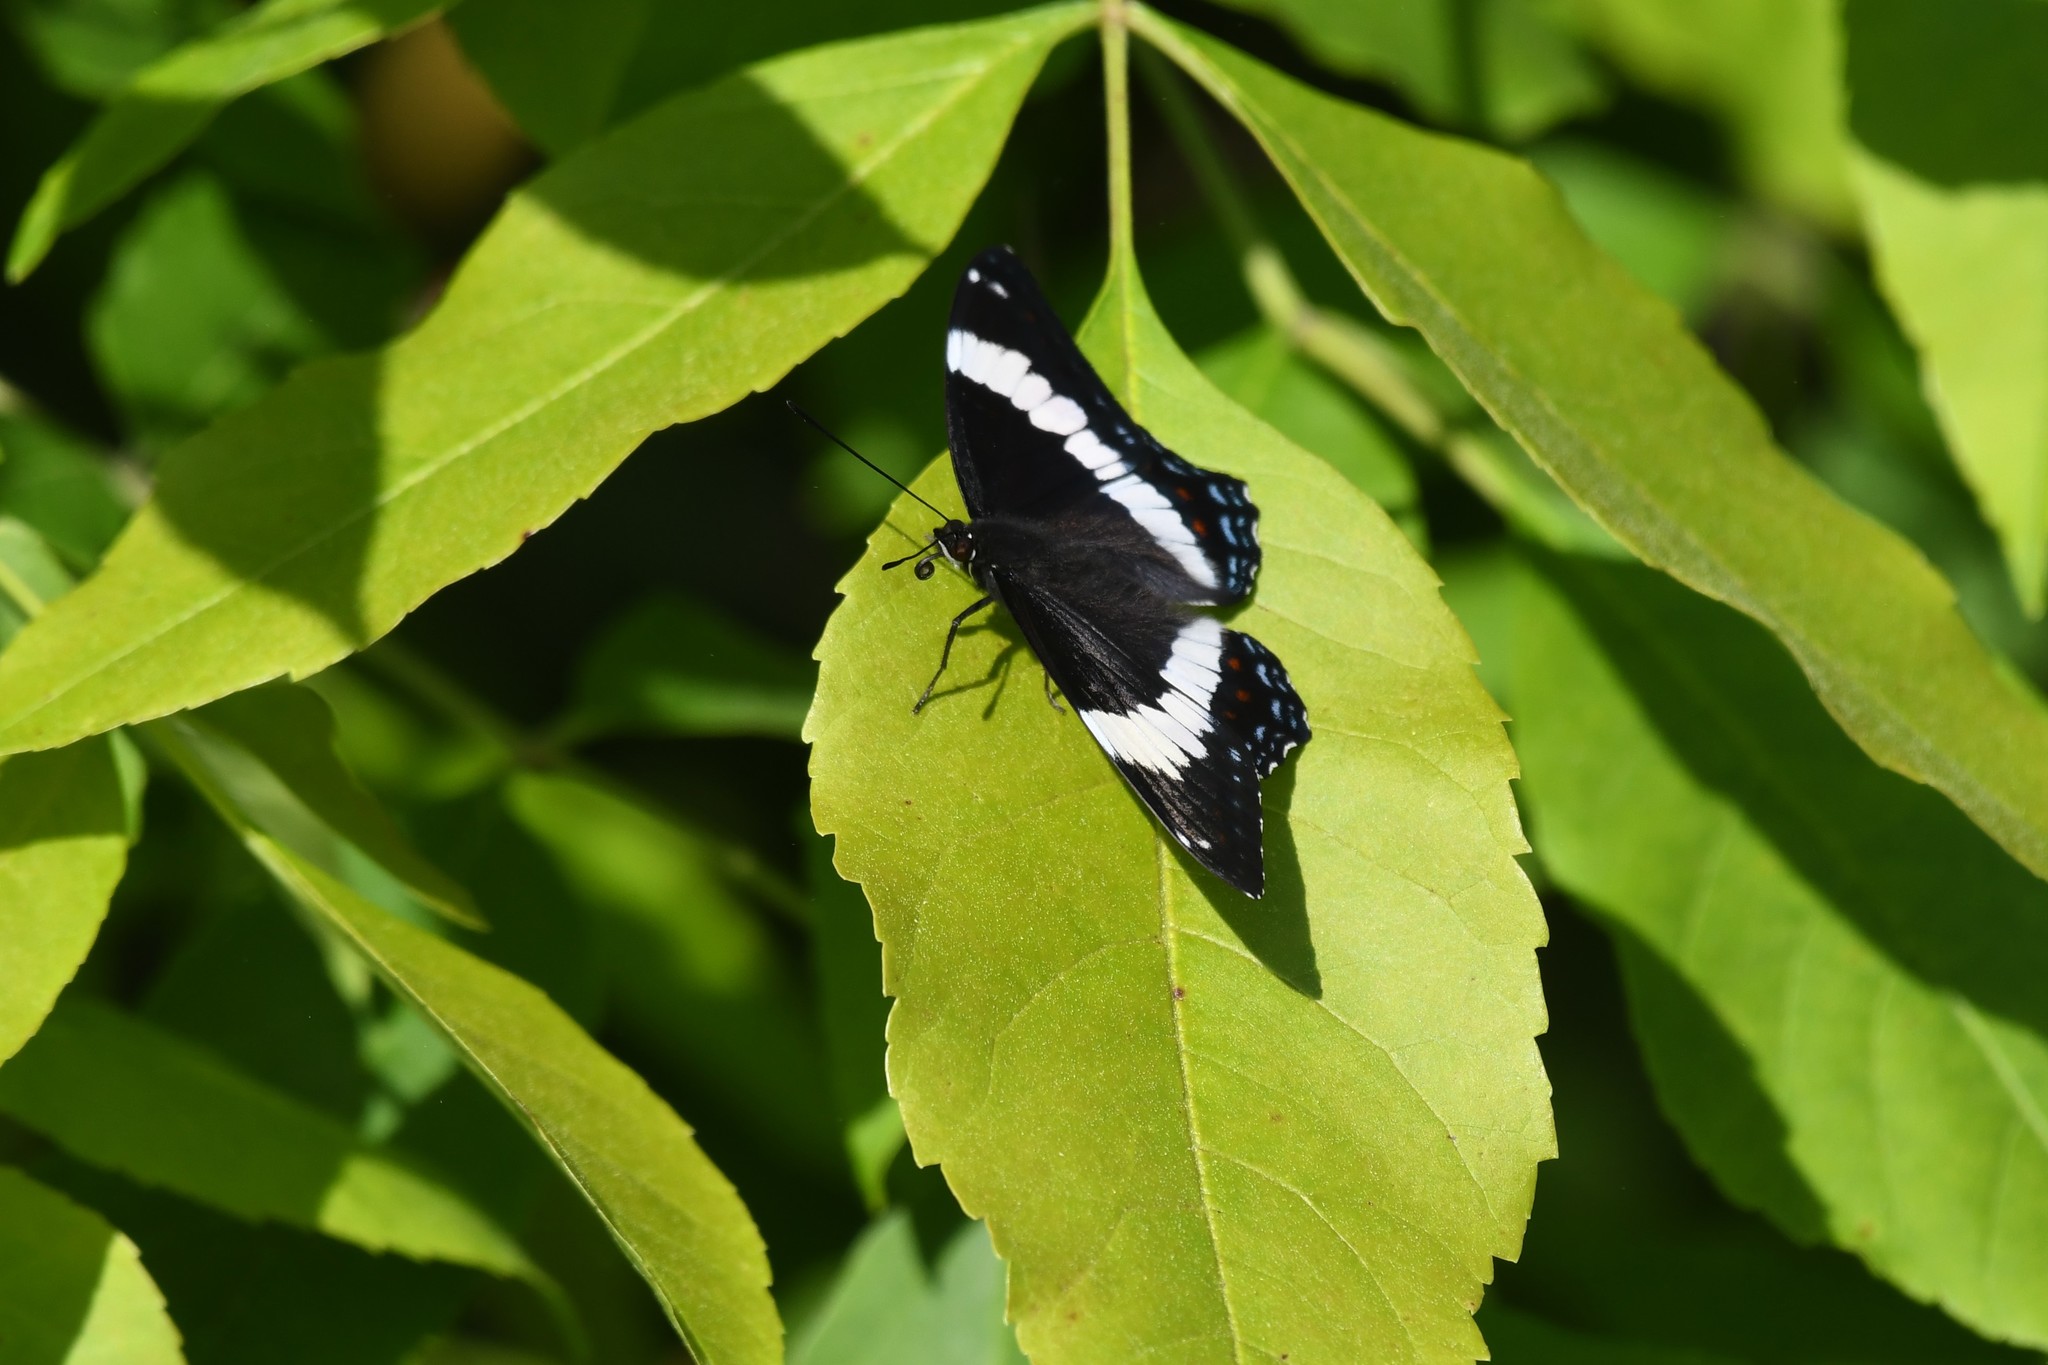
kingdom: Animalia
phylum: Arthropoda
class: Insecta
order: Lepidoptera
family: Nymphalidae
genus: Limenitis
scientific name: Limenitis arthemis
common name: Red-spotted admiral
